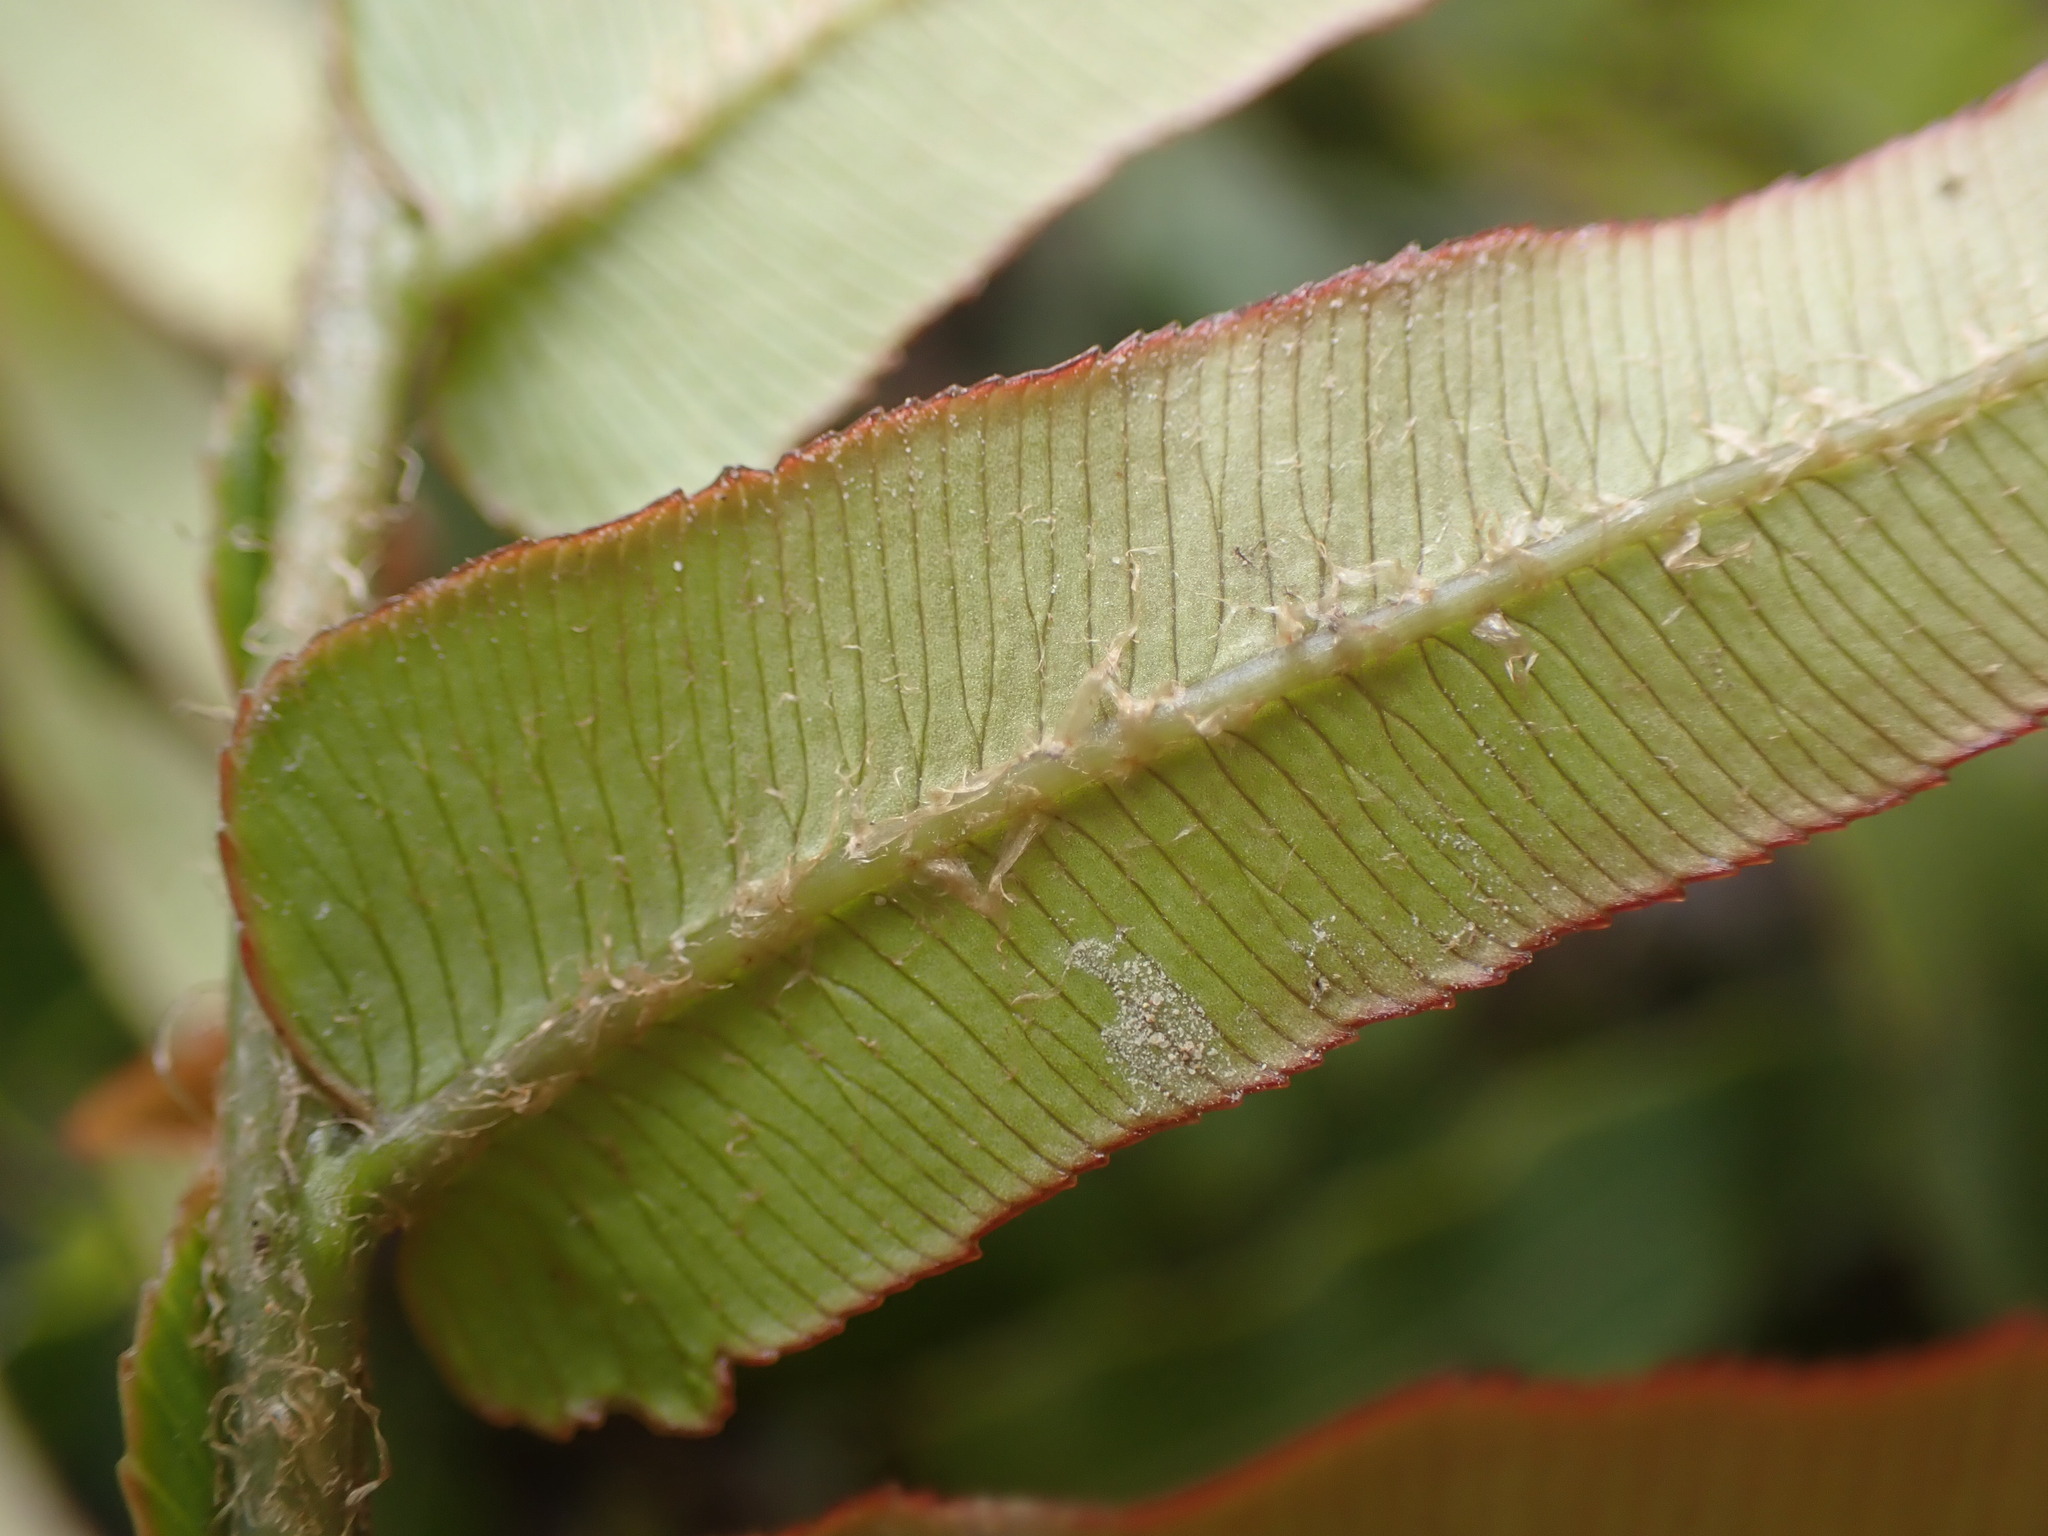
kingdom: Plantae
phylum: Tracheophyta
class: Polypodiopsida
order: Polypodiales
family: Blechnaceae
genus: Parablechnum
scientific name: Parablechnum minus
